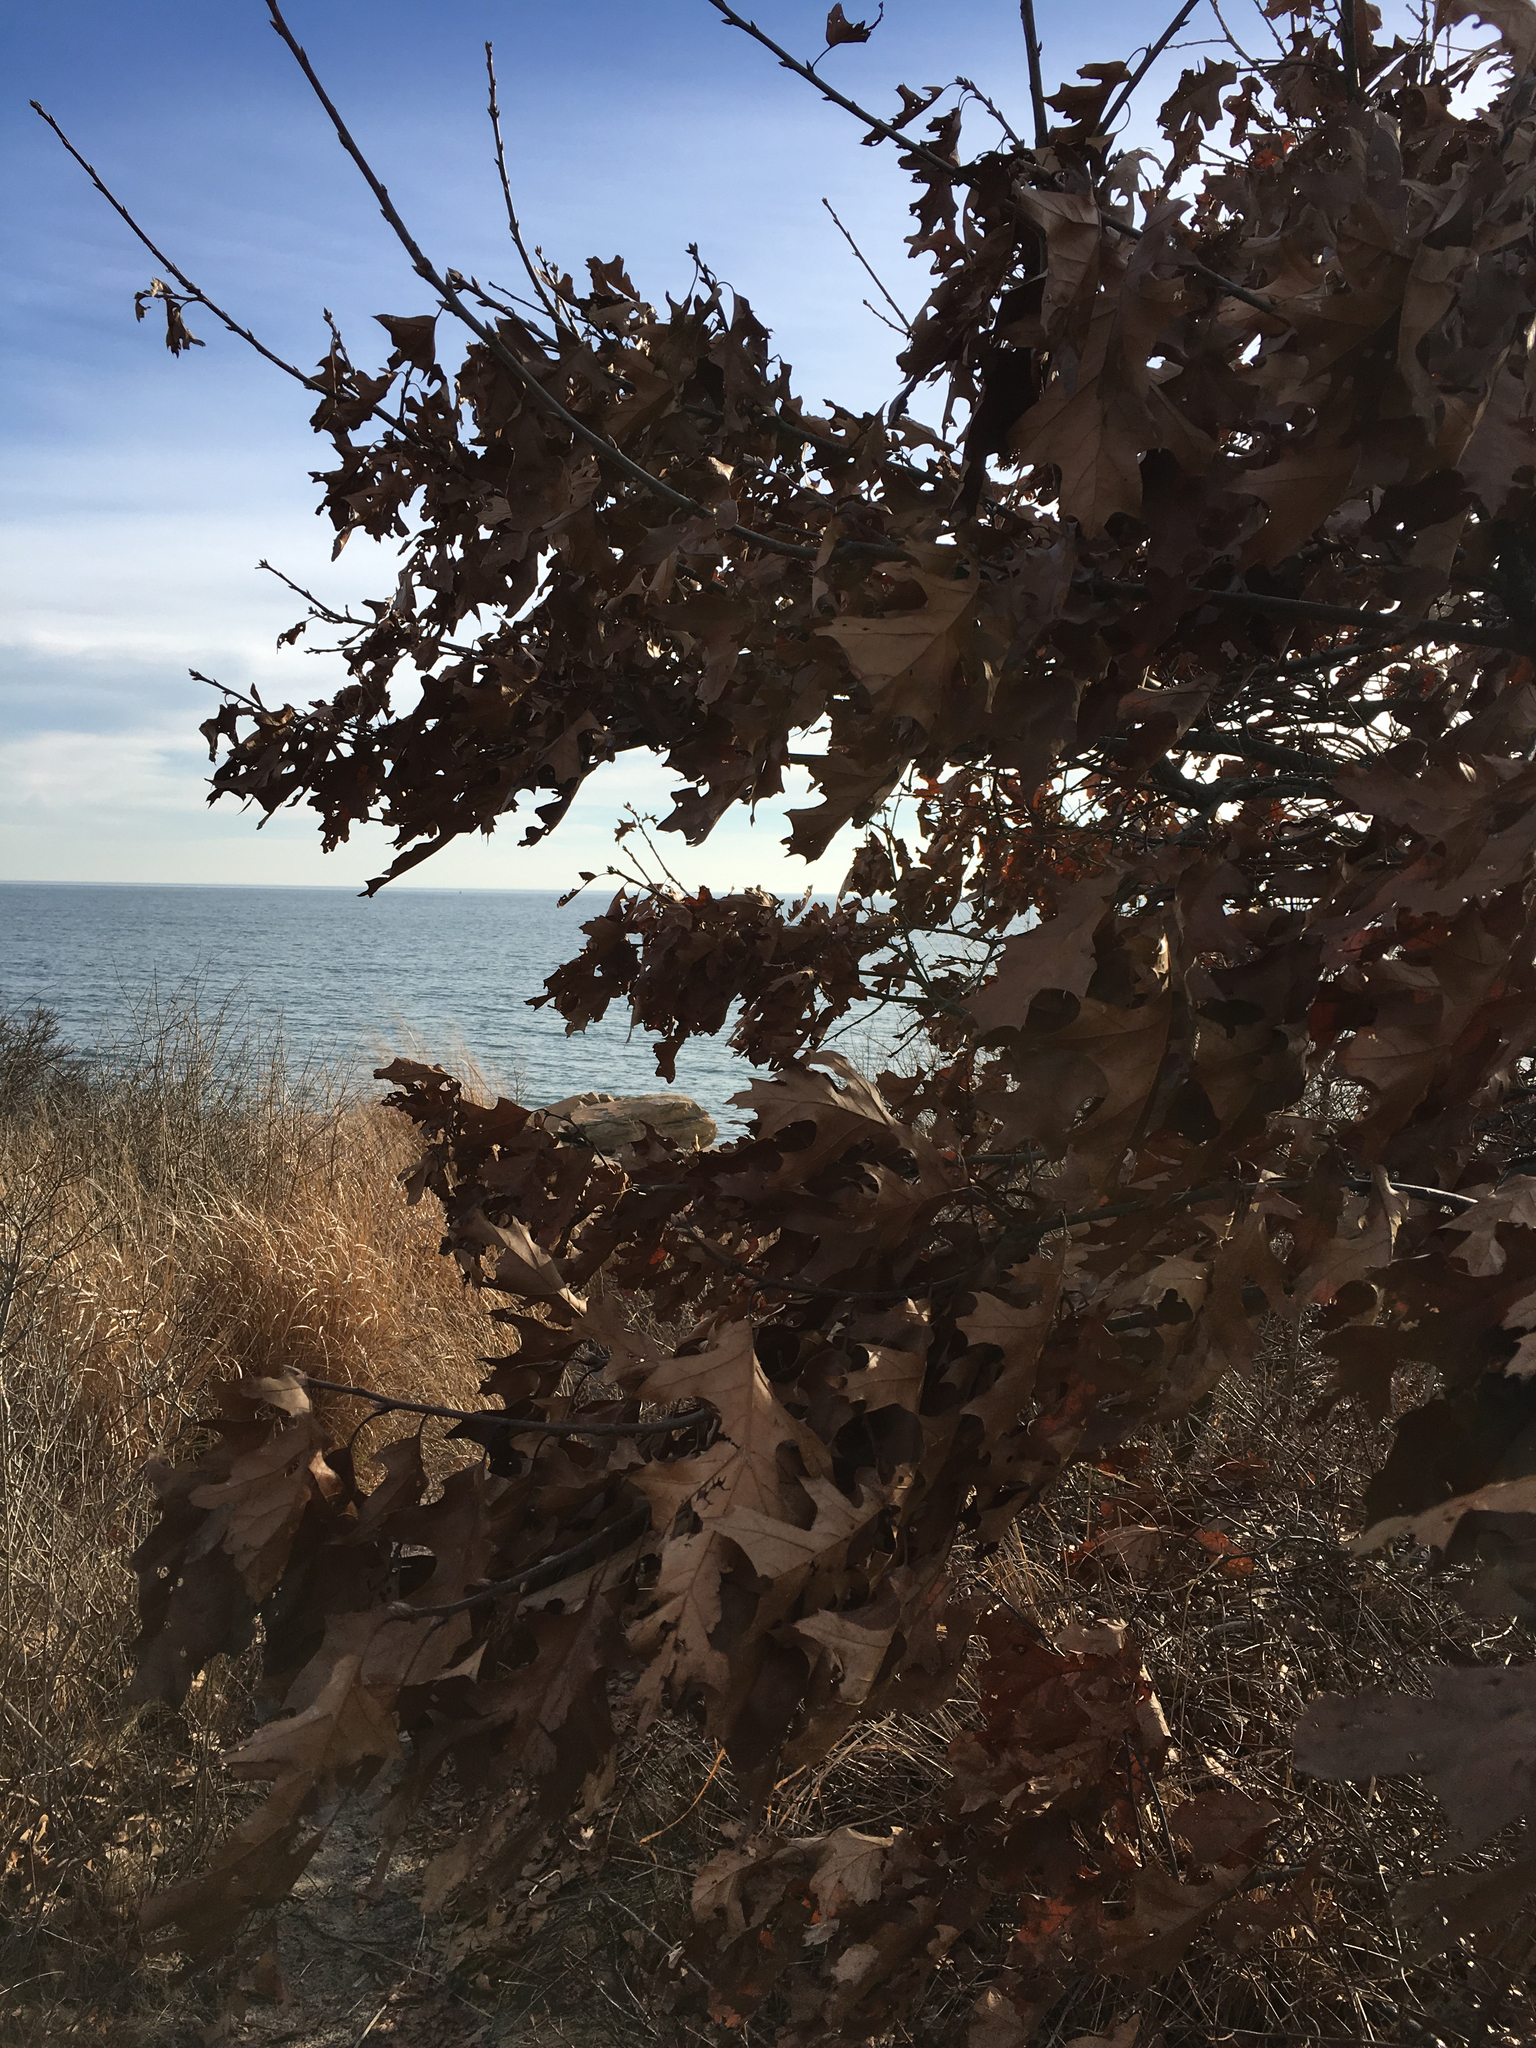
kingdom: Plantae
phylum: Tracheophyta
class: Magnoliopsida
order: Fagales
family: Fagaceae
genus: Quercus
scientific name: Quercus velutina
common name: Black oak
